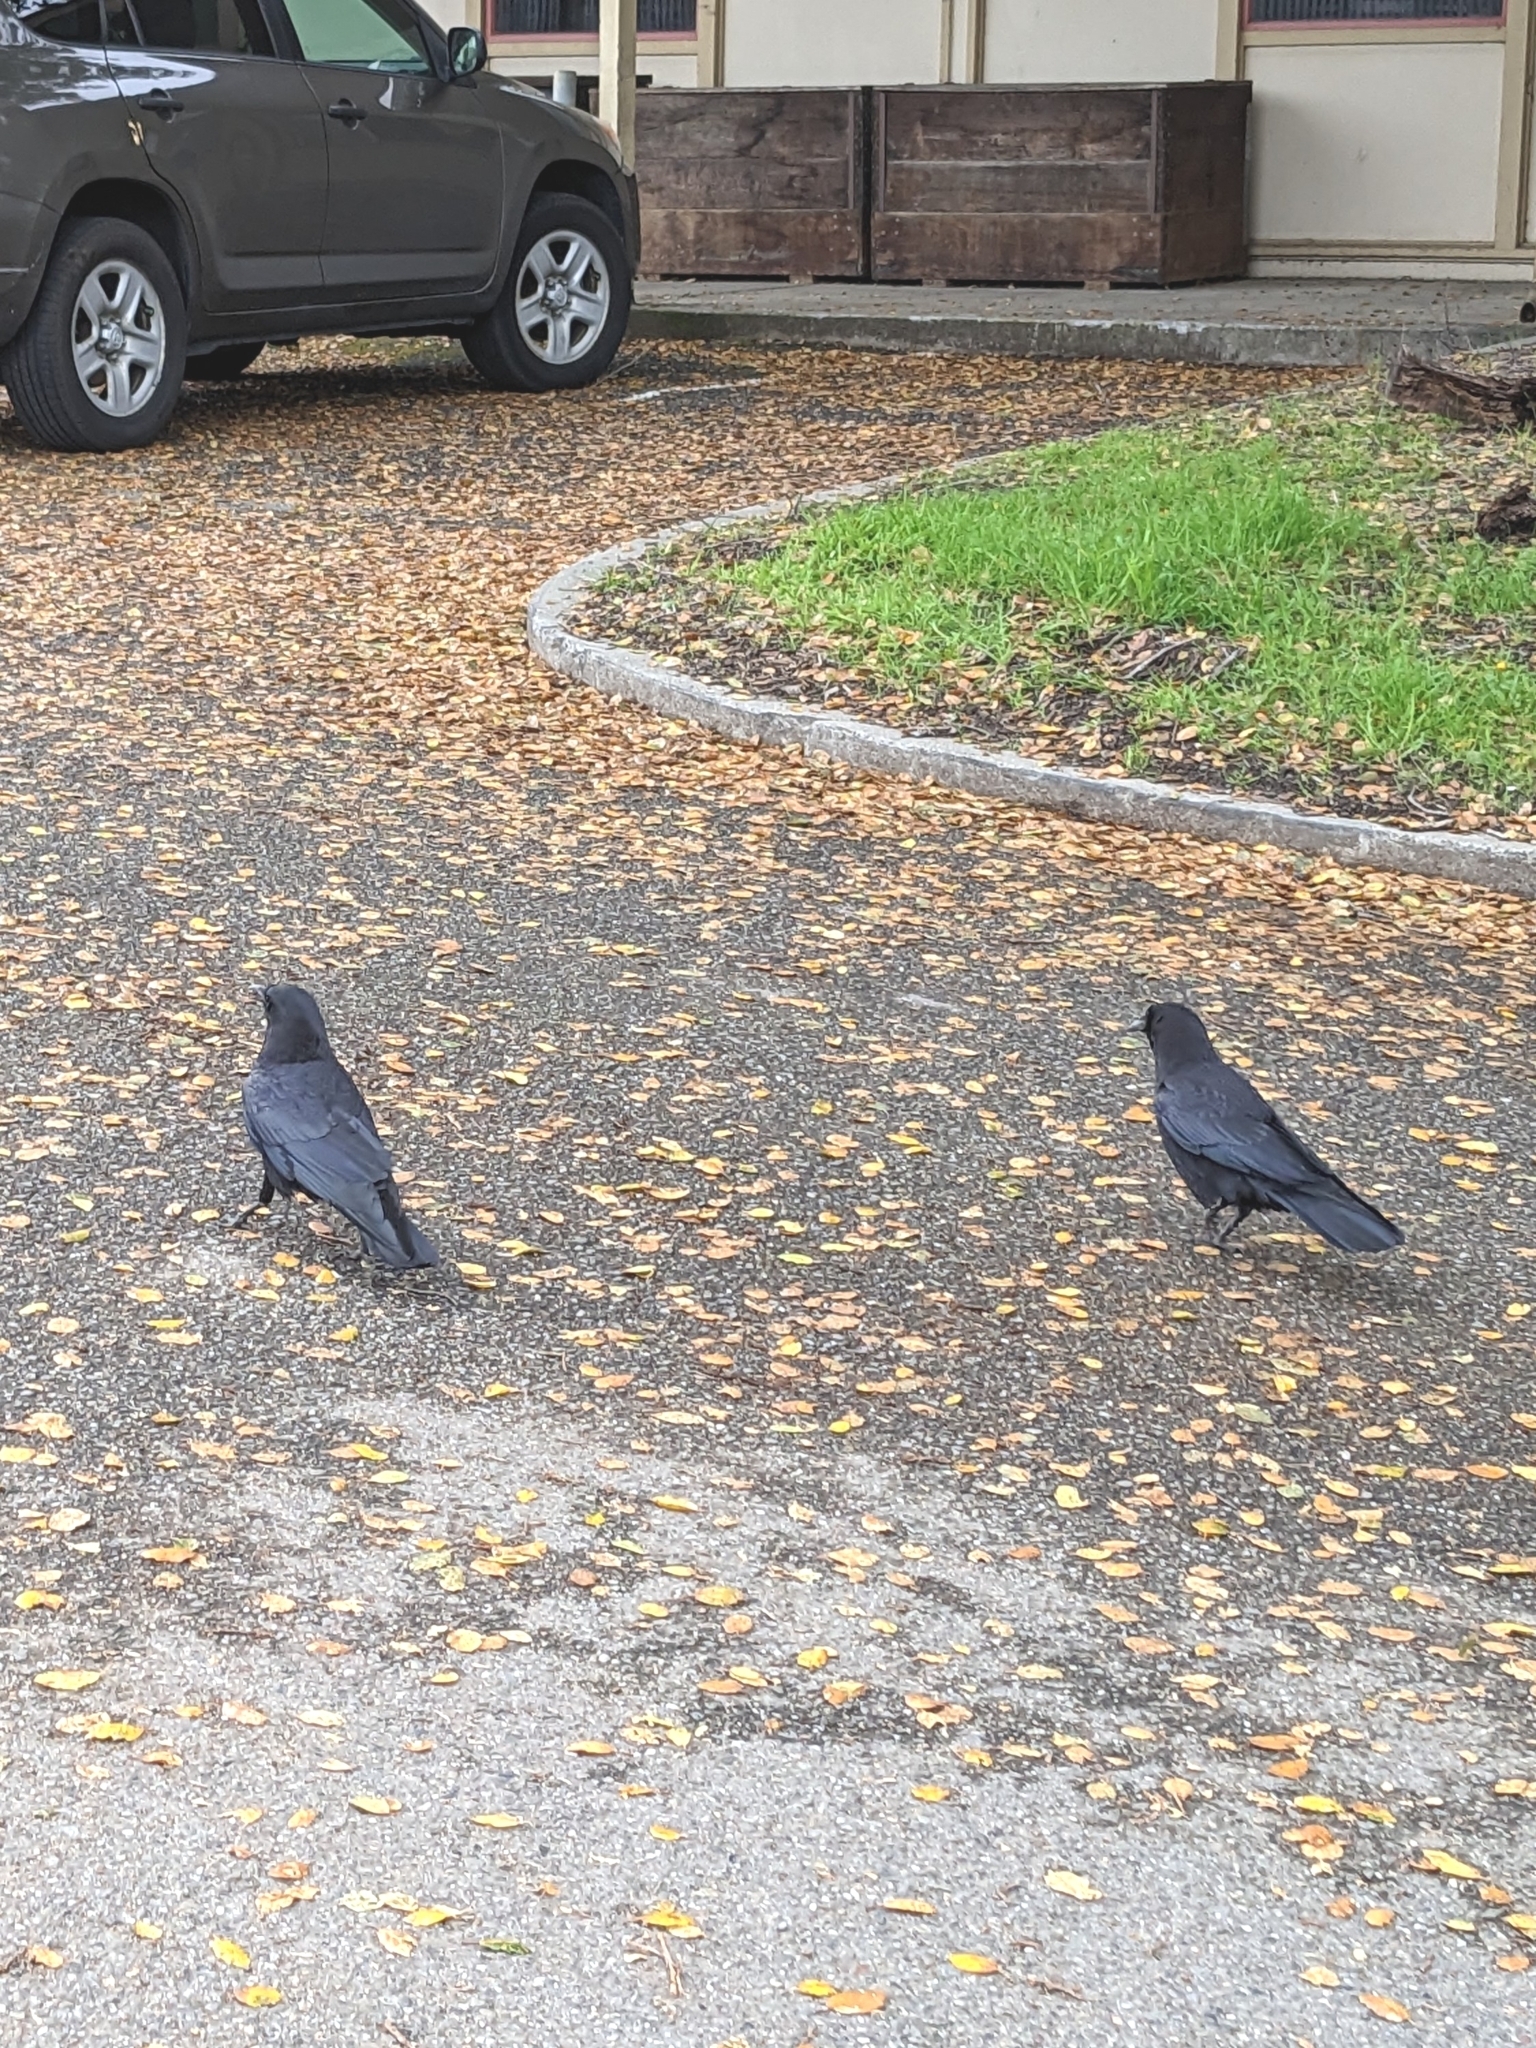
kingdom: Animalia
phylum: Chordata
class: Aves
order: Passeriformes
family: Corvidae
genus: Corvus
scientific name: Corvus brachyrhynchos
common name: American crow
